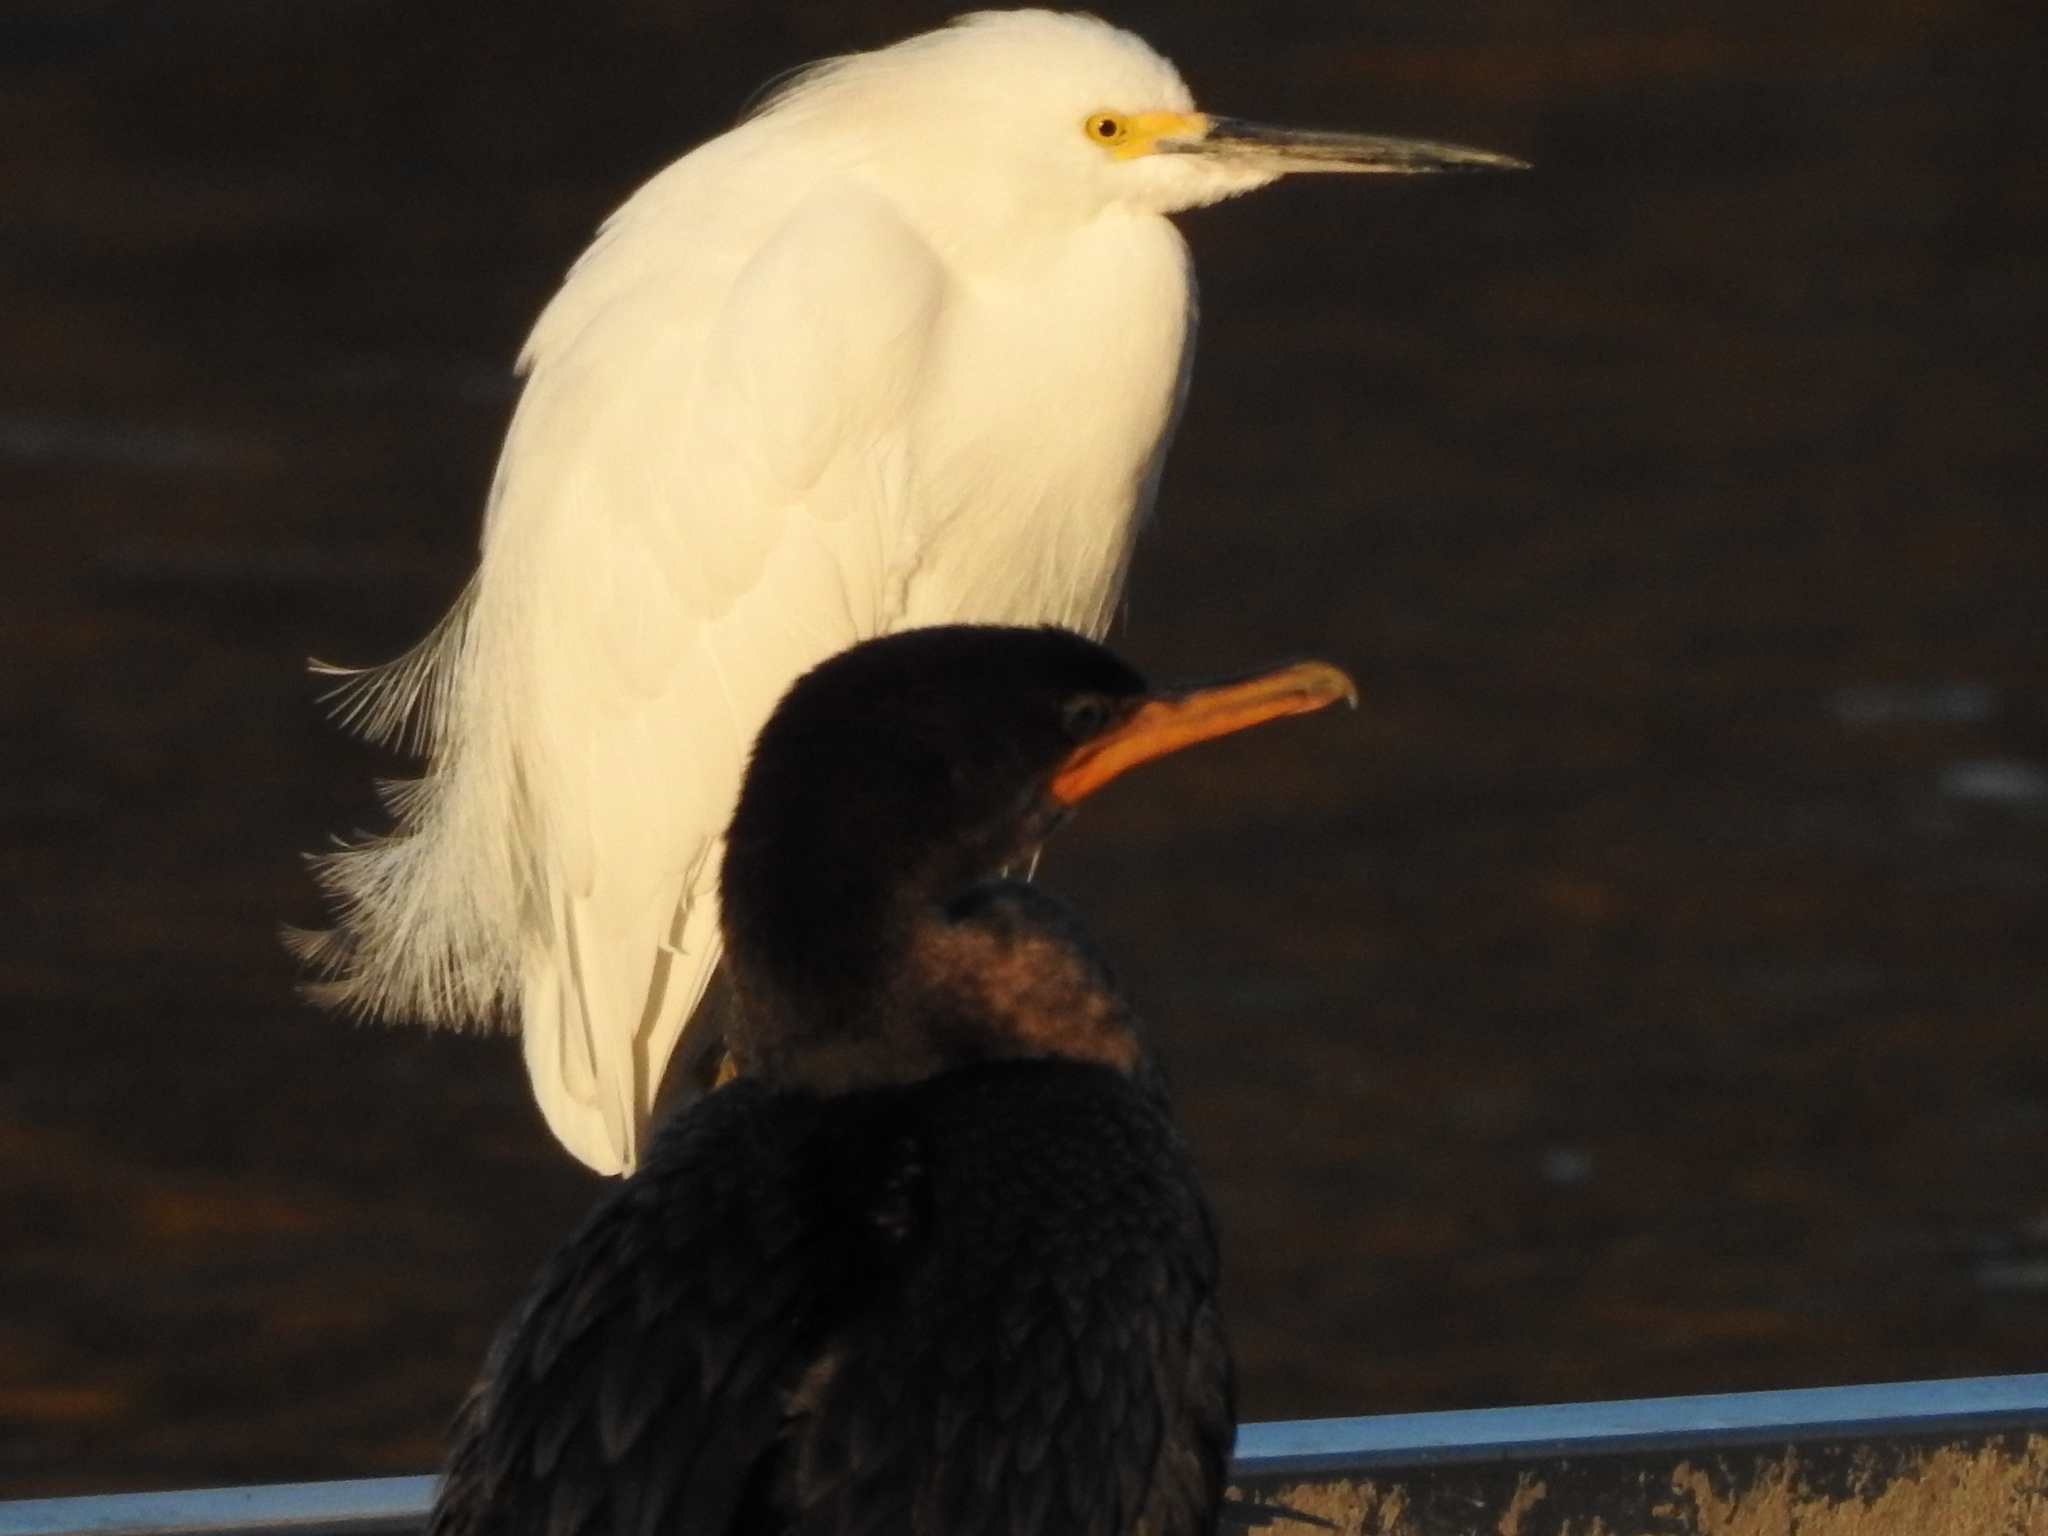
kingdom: Animalia
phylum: Chordata
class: Aves
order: Suliformes
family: Phalacrocoracidae
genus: Phalacrocorax
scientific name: Phalacrocorax brasilianus
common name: Neotropic cormorant
